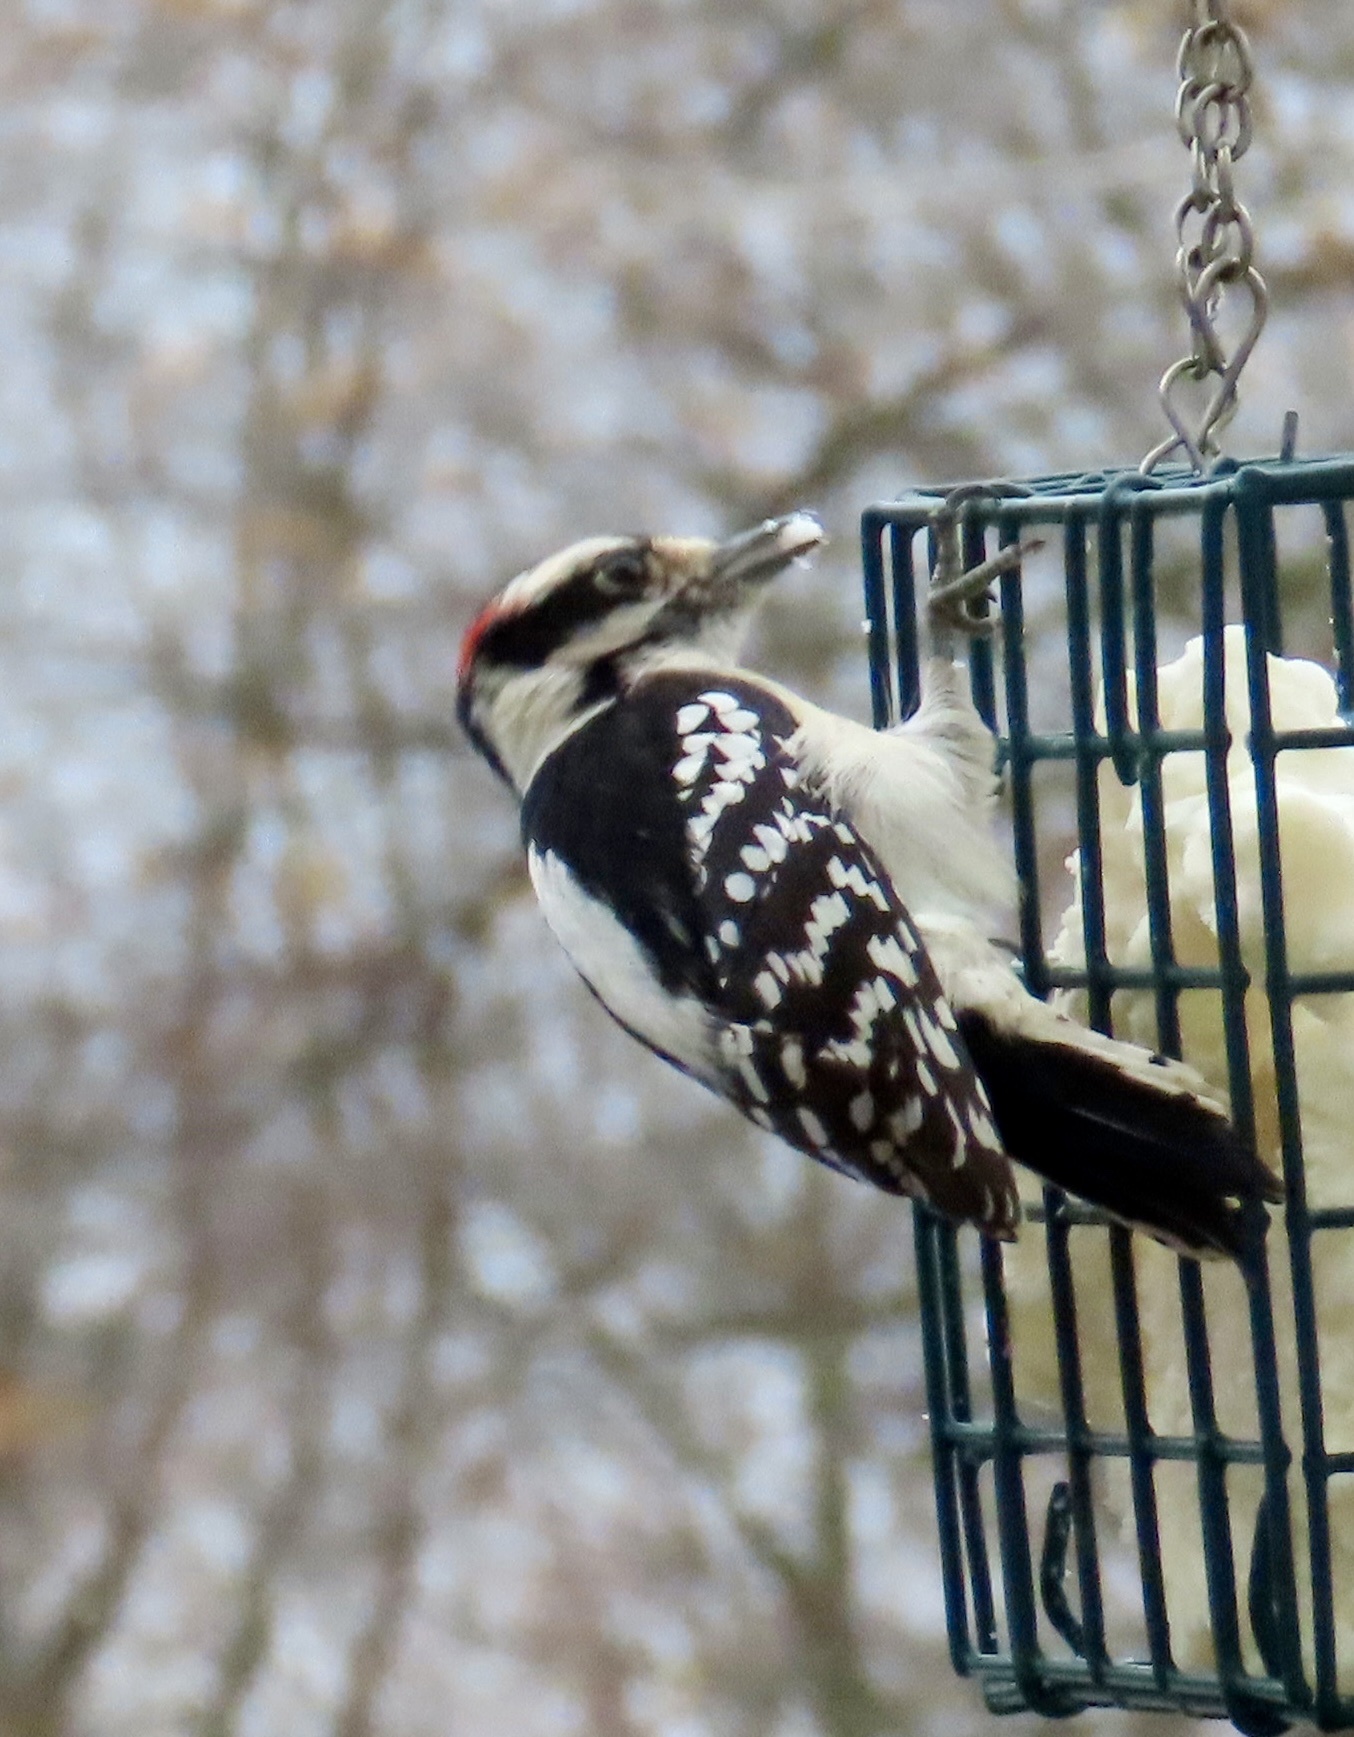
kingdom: Animalia
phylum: Chordata
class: Aves
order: Piciformes
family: Picidae
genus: Dryobates
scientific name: Dryobates pubescens
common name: Downy woodpecker
